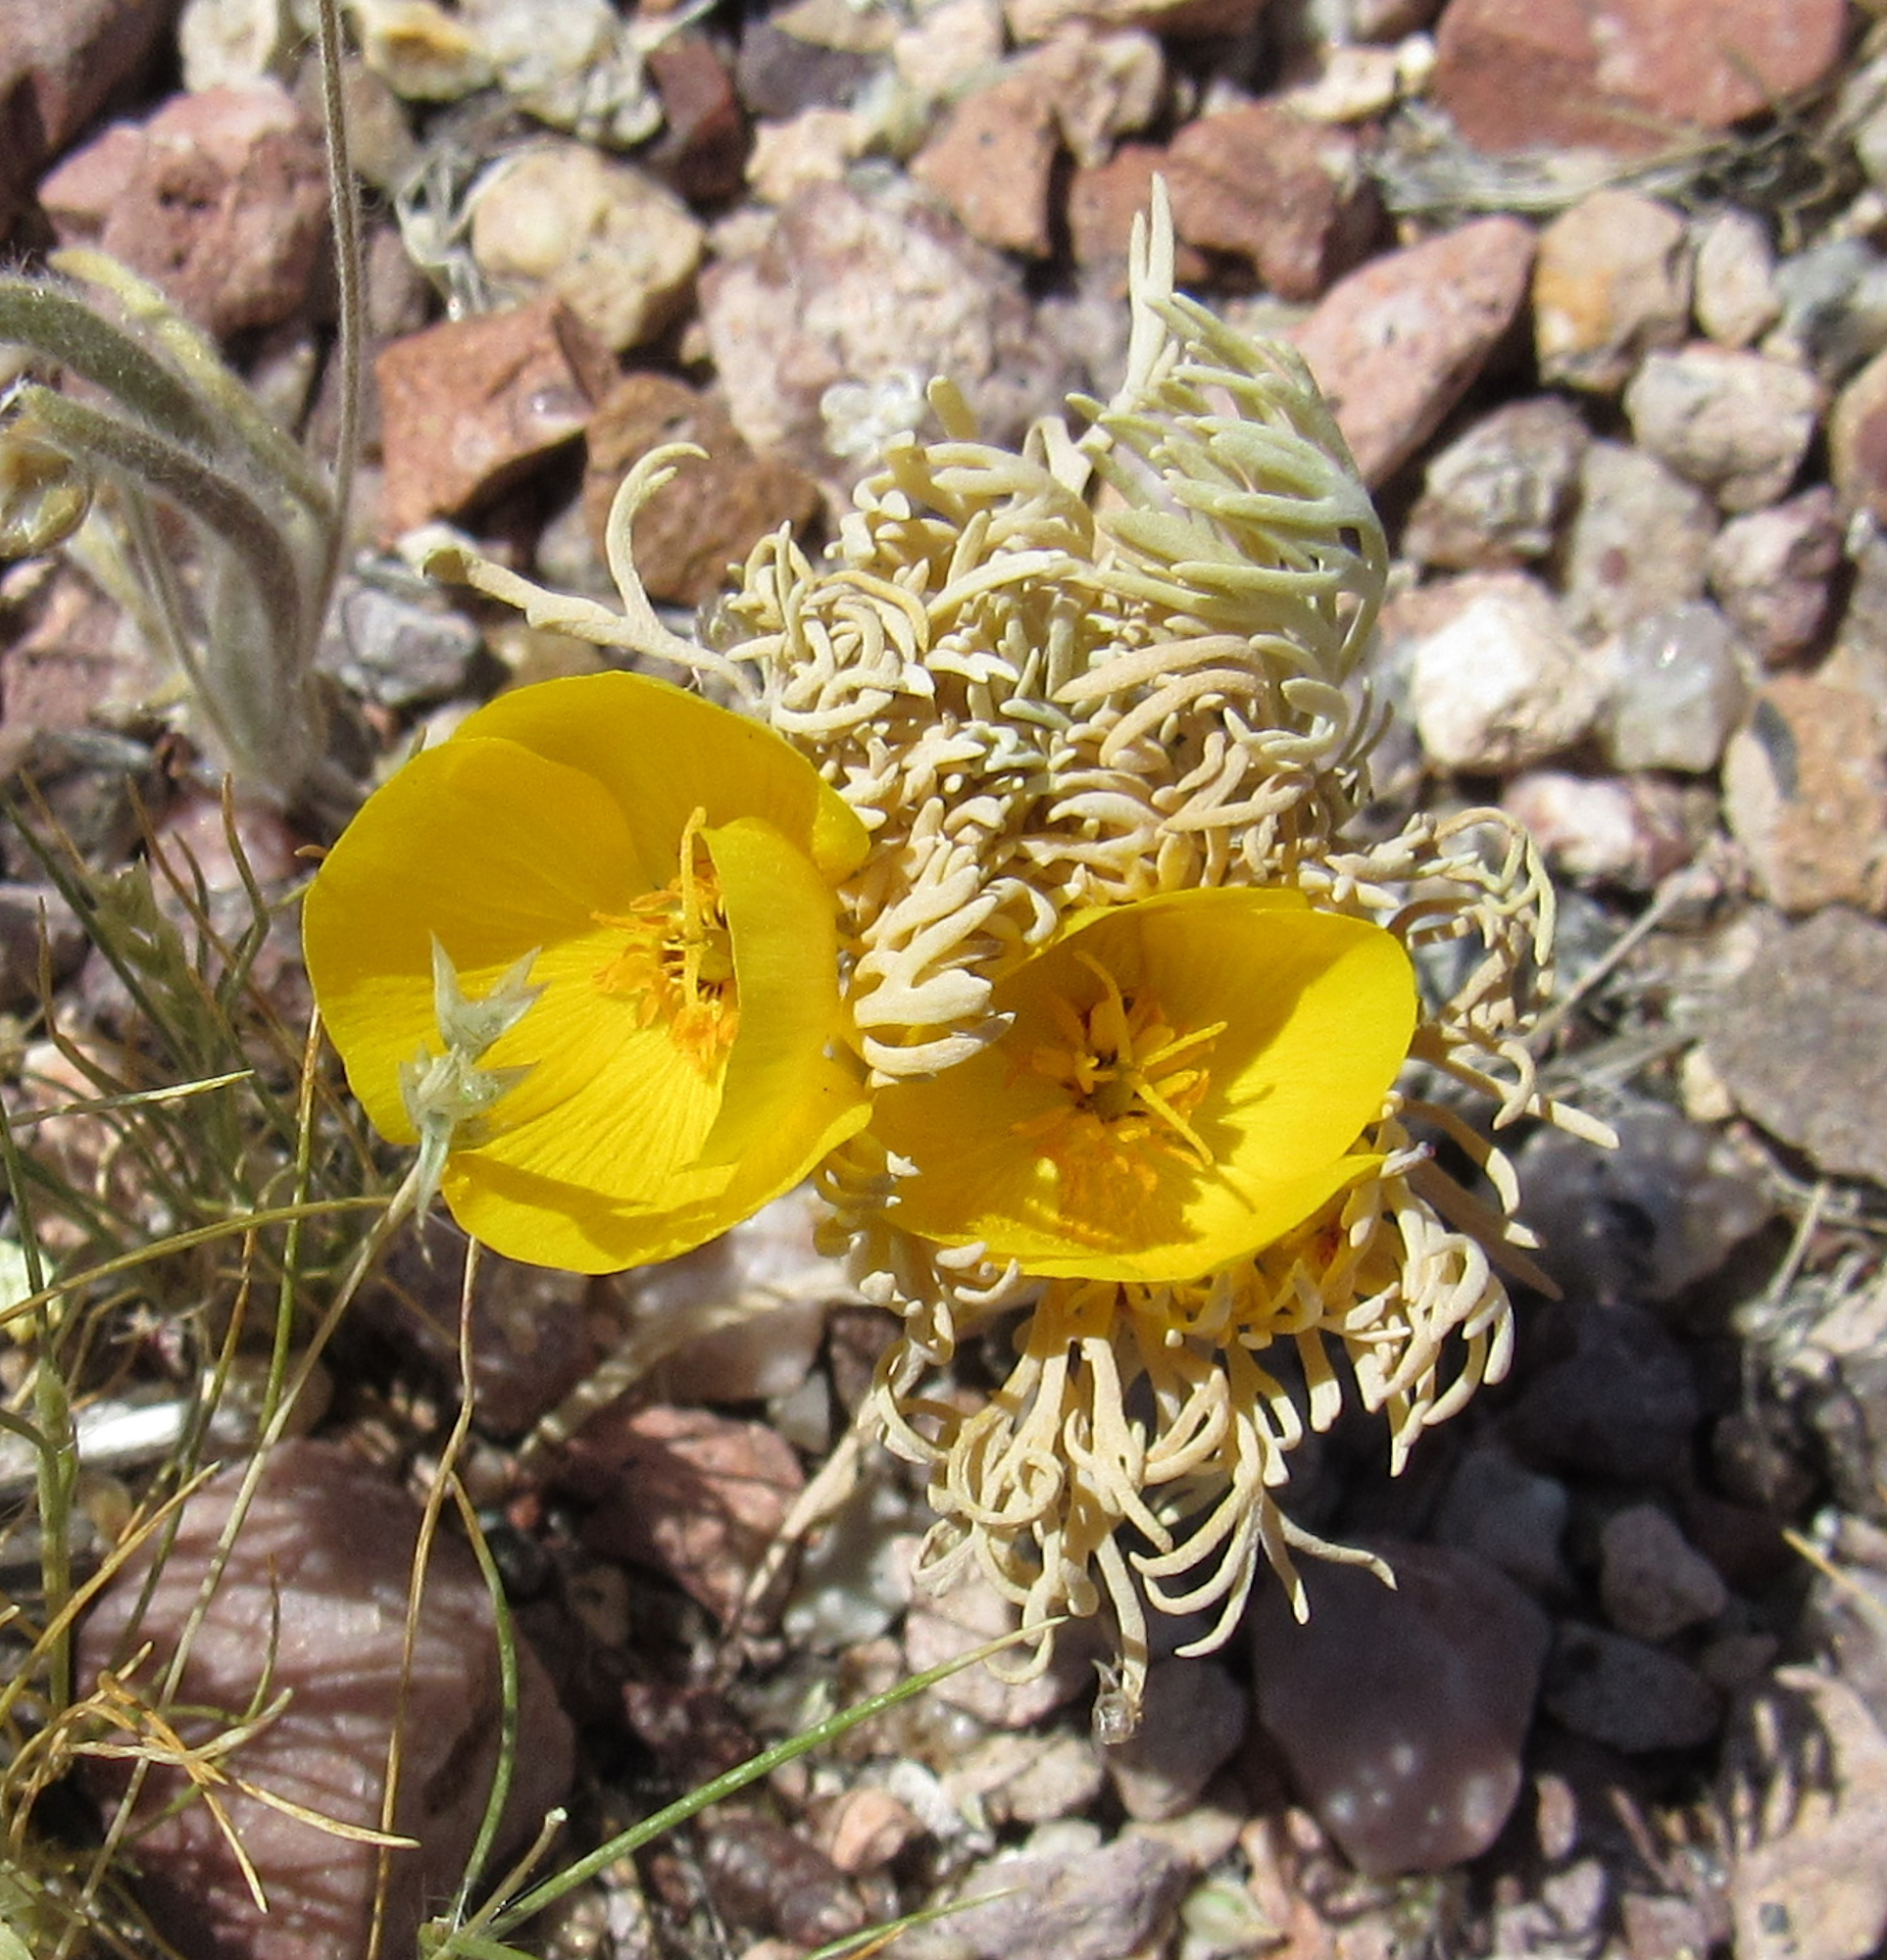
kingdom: Plantae
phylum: Tracheophyta
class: Magnoliopsida
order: Ranunculales
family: Papaveraceae
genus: Eschscholzia
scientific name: Eschscholzia glyptosperma
